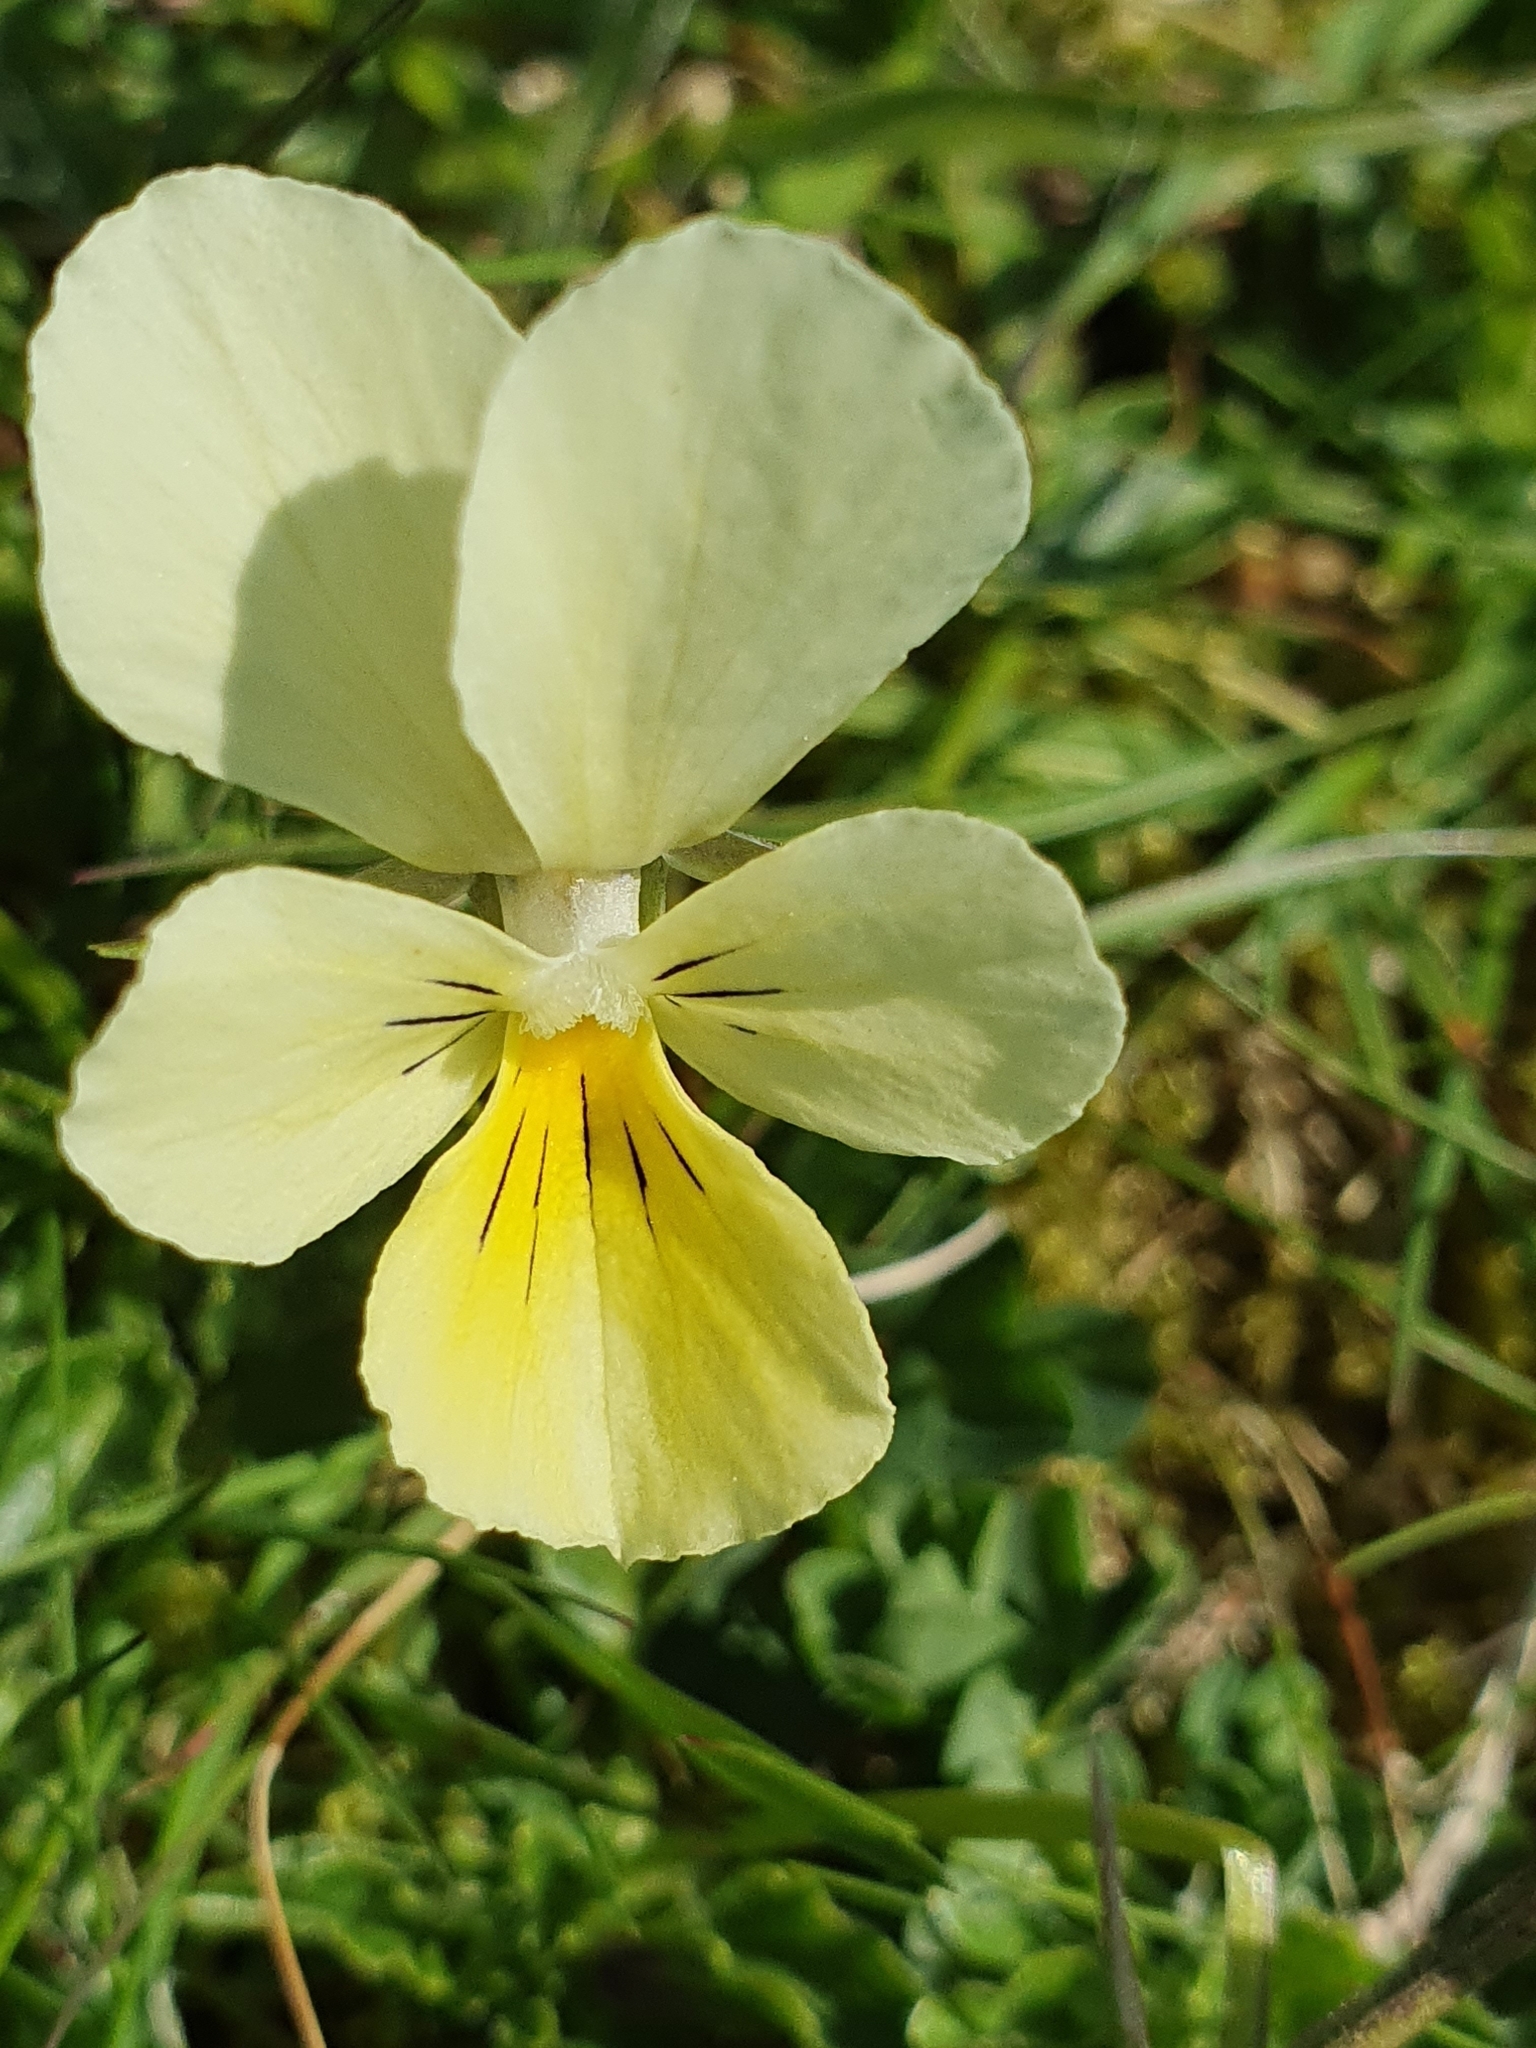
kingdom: Plantae
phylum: Tracheophyta
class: Magnoliopsida
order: Malpighiales
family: Violaceae
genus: Viola
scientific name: Viola lutea
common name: Mountain pansy
